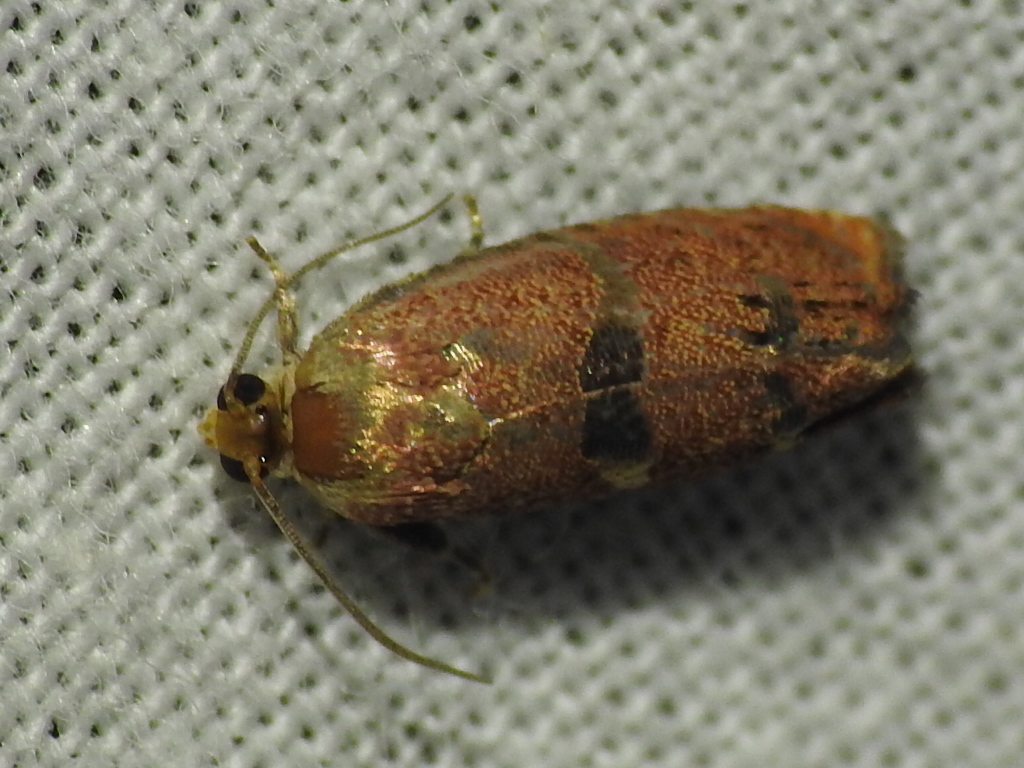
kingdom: Animalia
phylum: Arthropoda
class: Insecta
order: Lepidoptera
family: Tortricidae
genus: Cydia
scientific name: Cydia latiferreana
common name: Filbertworm moth
